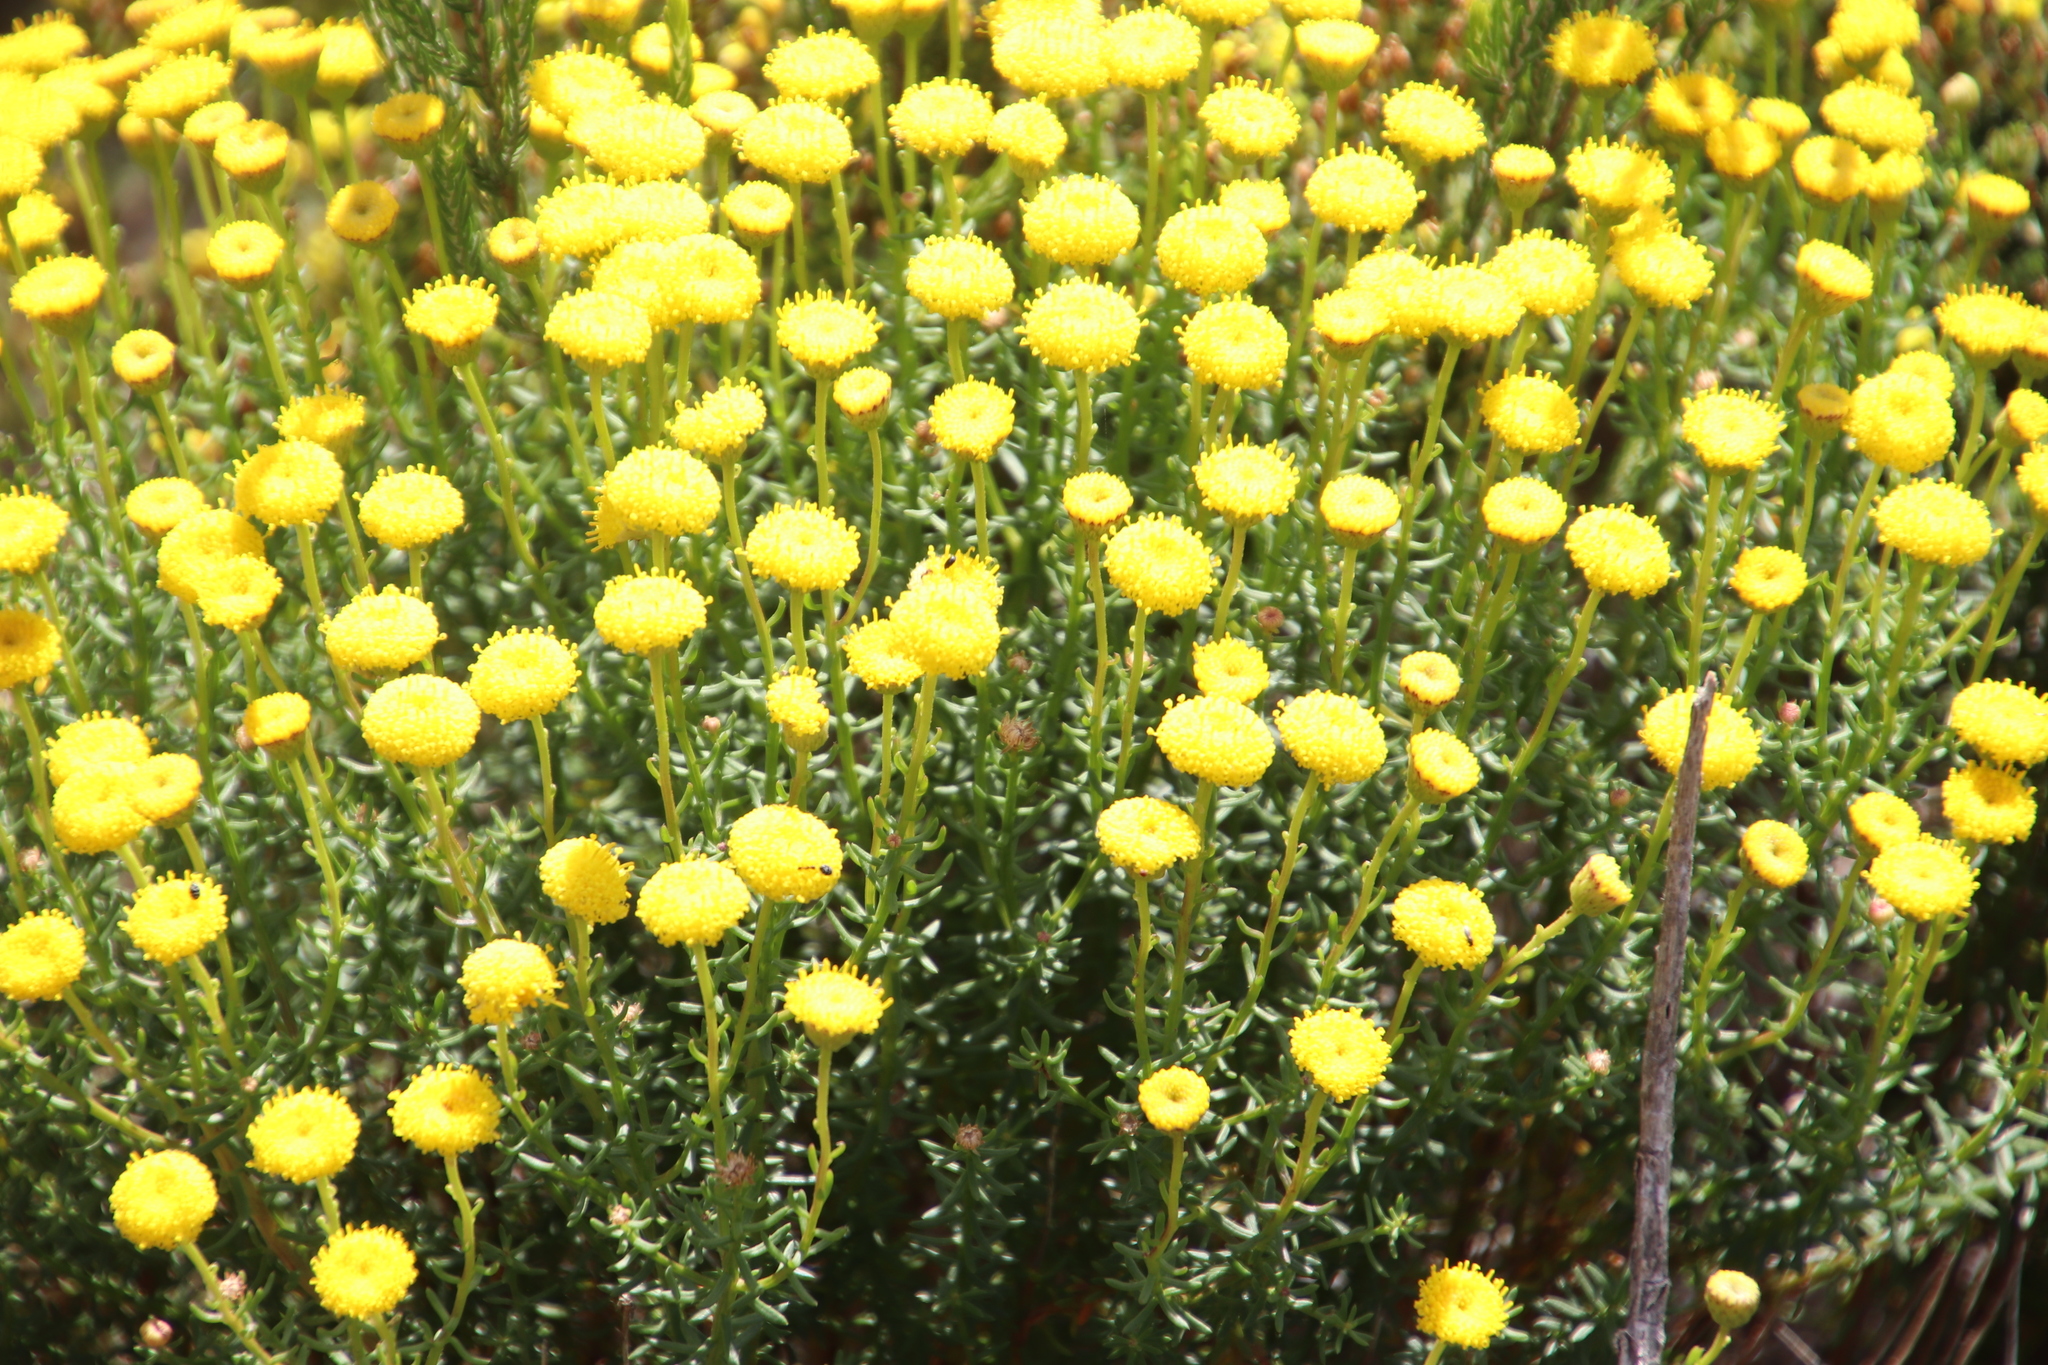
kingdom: Plantae
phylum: Tracheophyta
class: Magnoliopsida
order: Asterales
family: Asteraceae
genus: Chrysocoma
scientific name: Chrysocoma cernua
